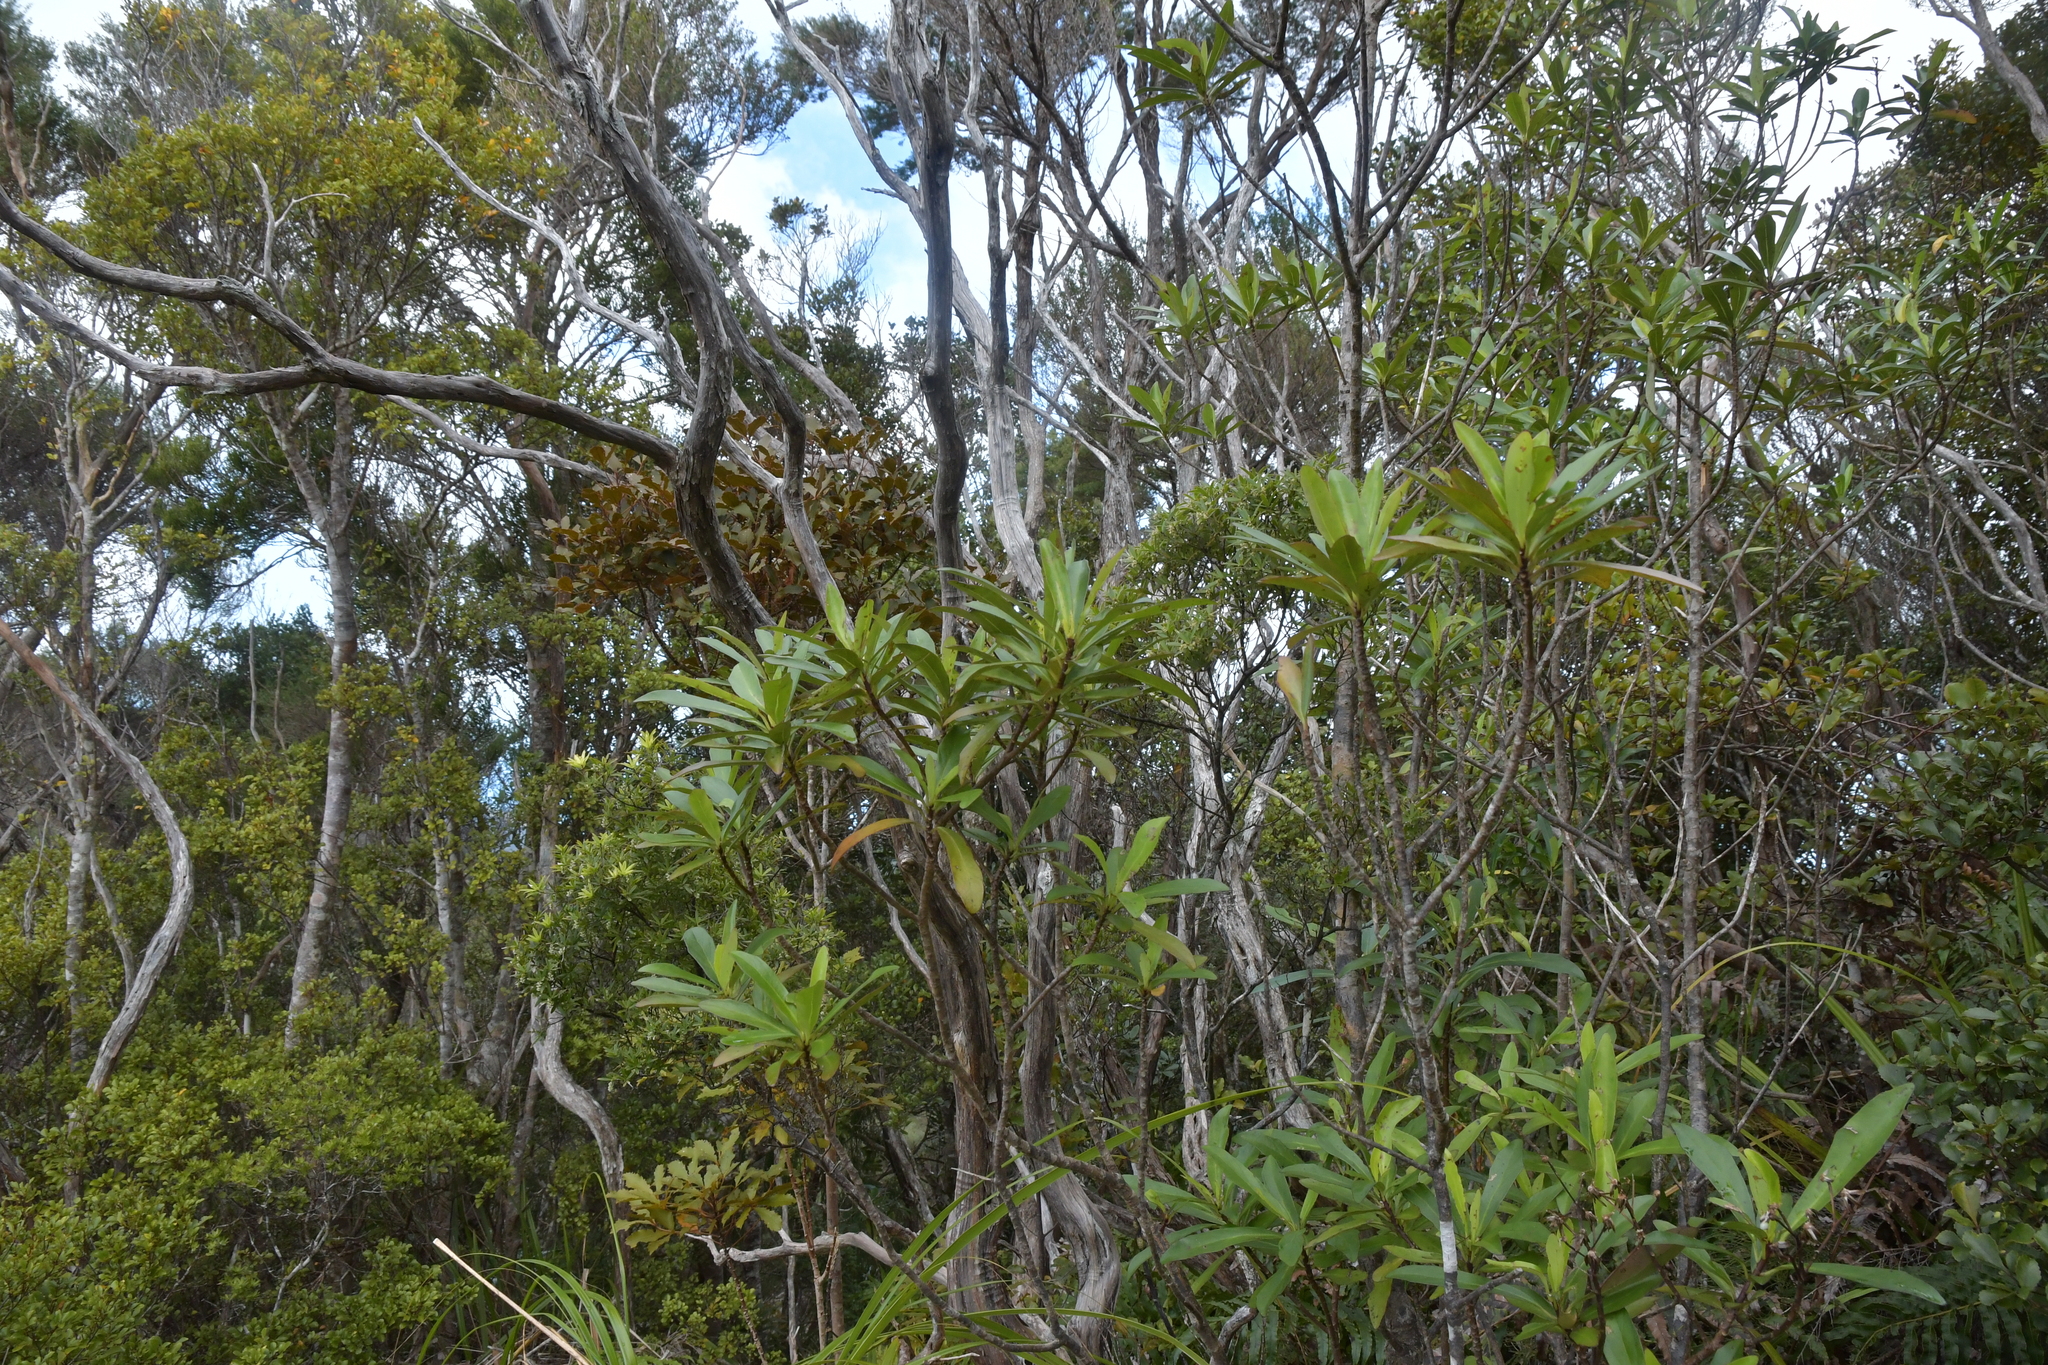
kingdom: Plantae
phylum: Tracheophyta
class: Magnoliopsida
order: Asterales
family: Asteraceae
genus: Brachyglottis
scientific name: Brachyglottis kirkii
